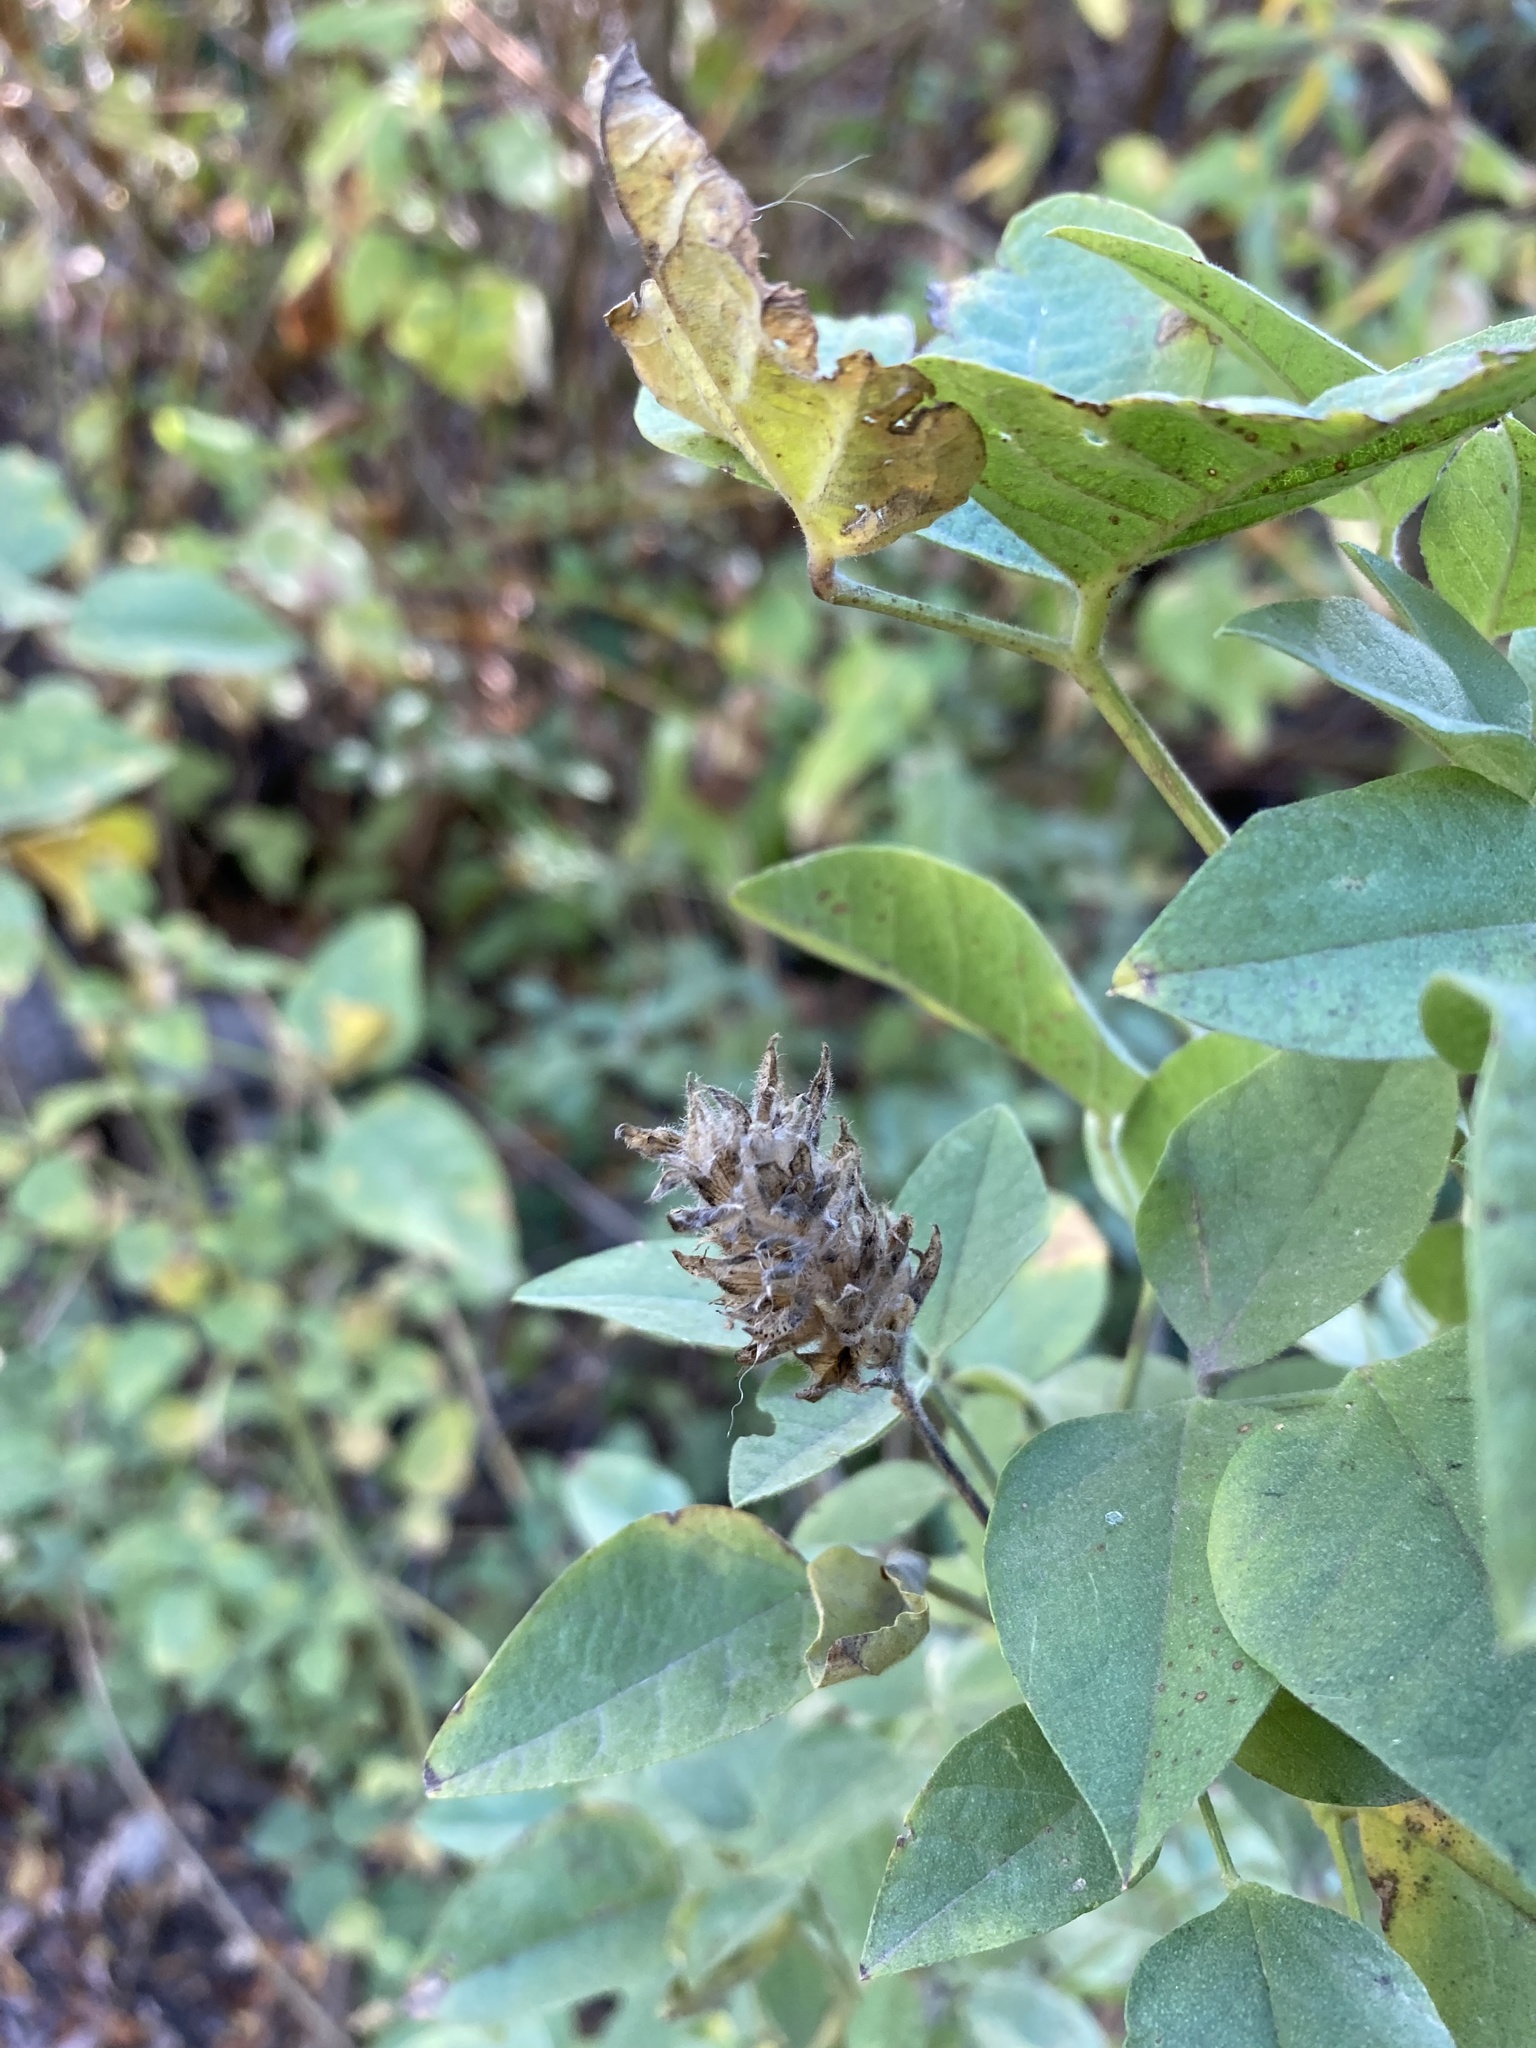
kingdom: Plantae
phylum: Tracheophyta
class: Magnoliopsida
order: Fabales
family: Fabaceae
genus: Hoita
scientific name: Hoita macrostachya
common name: Leatherroot
